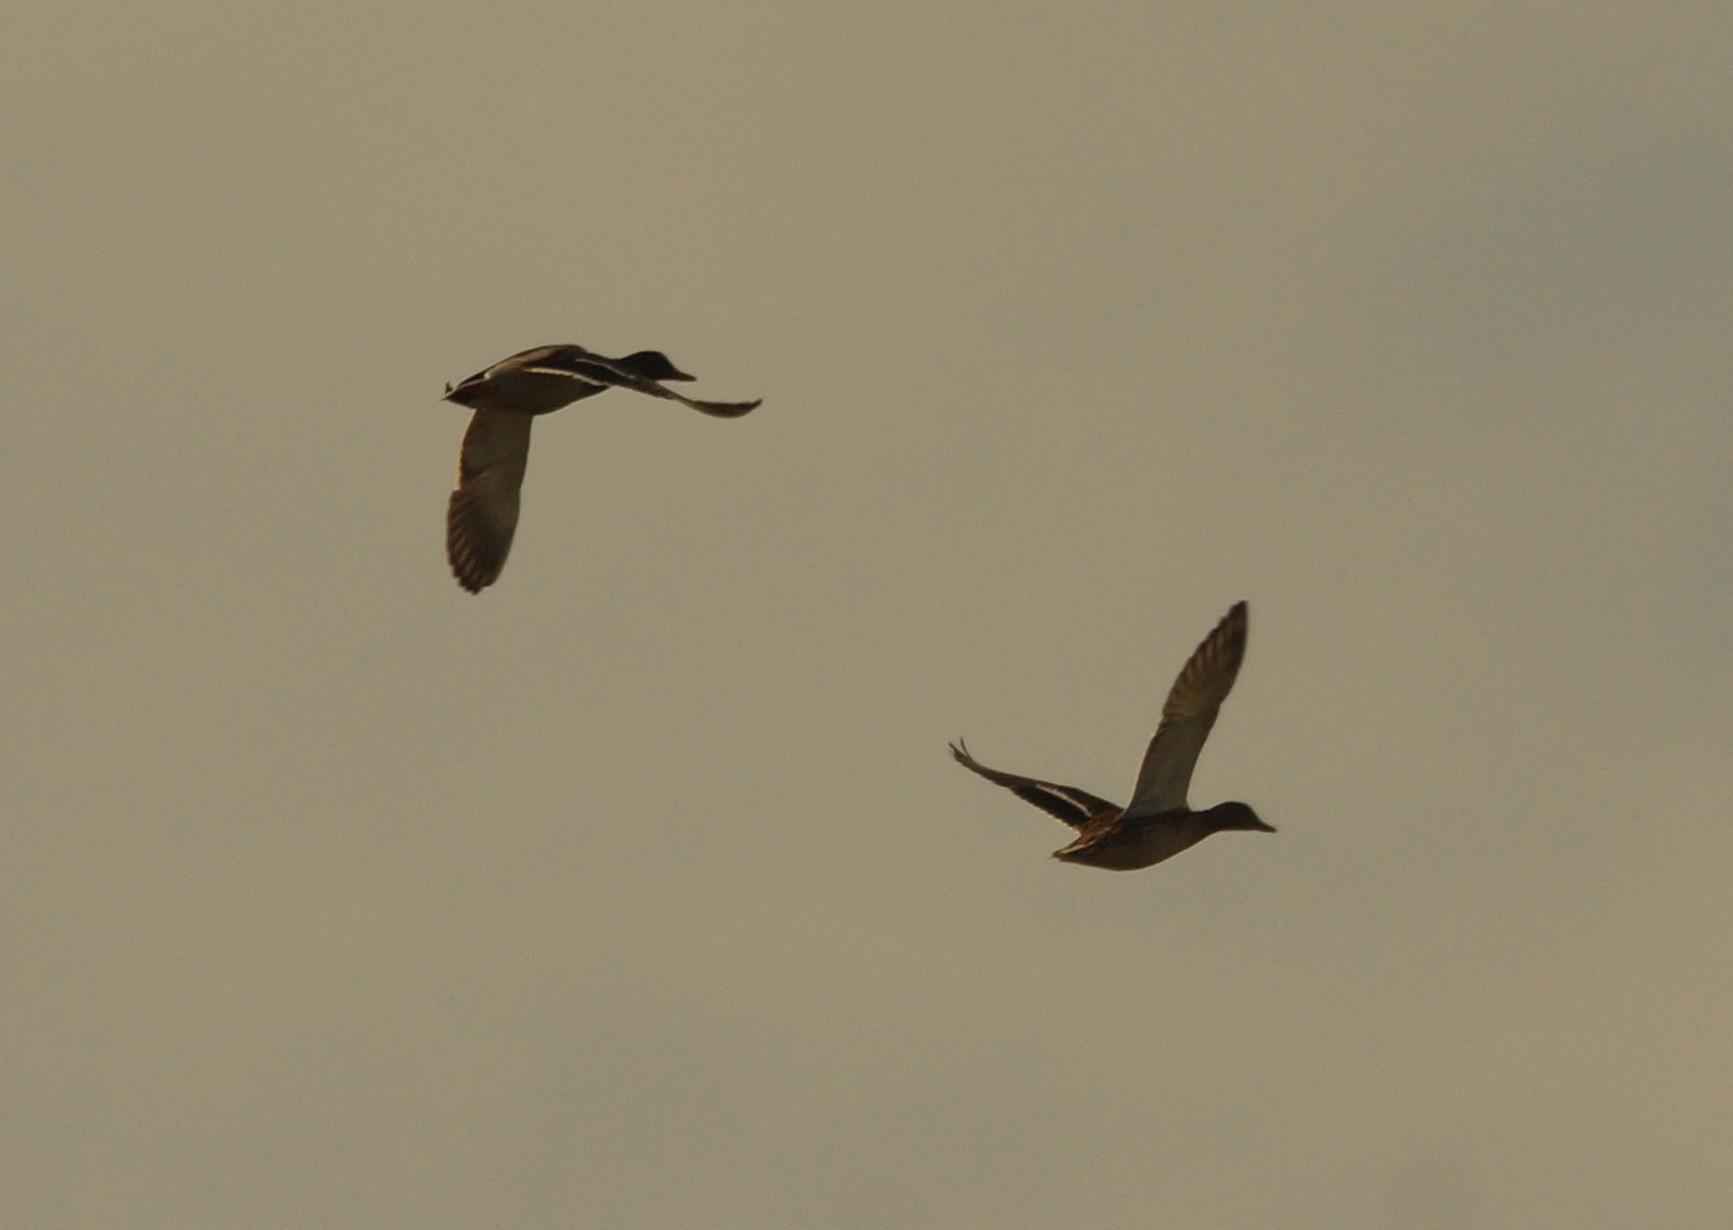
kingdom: Animalia
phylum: Chordata
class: Aves
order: Anseriformes
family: Anatidae
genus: Anas
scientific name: Anas platyrhynchos
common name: Mallard
